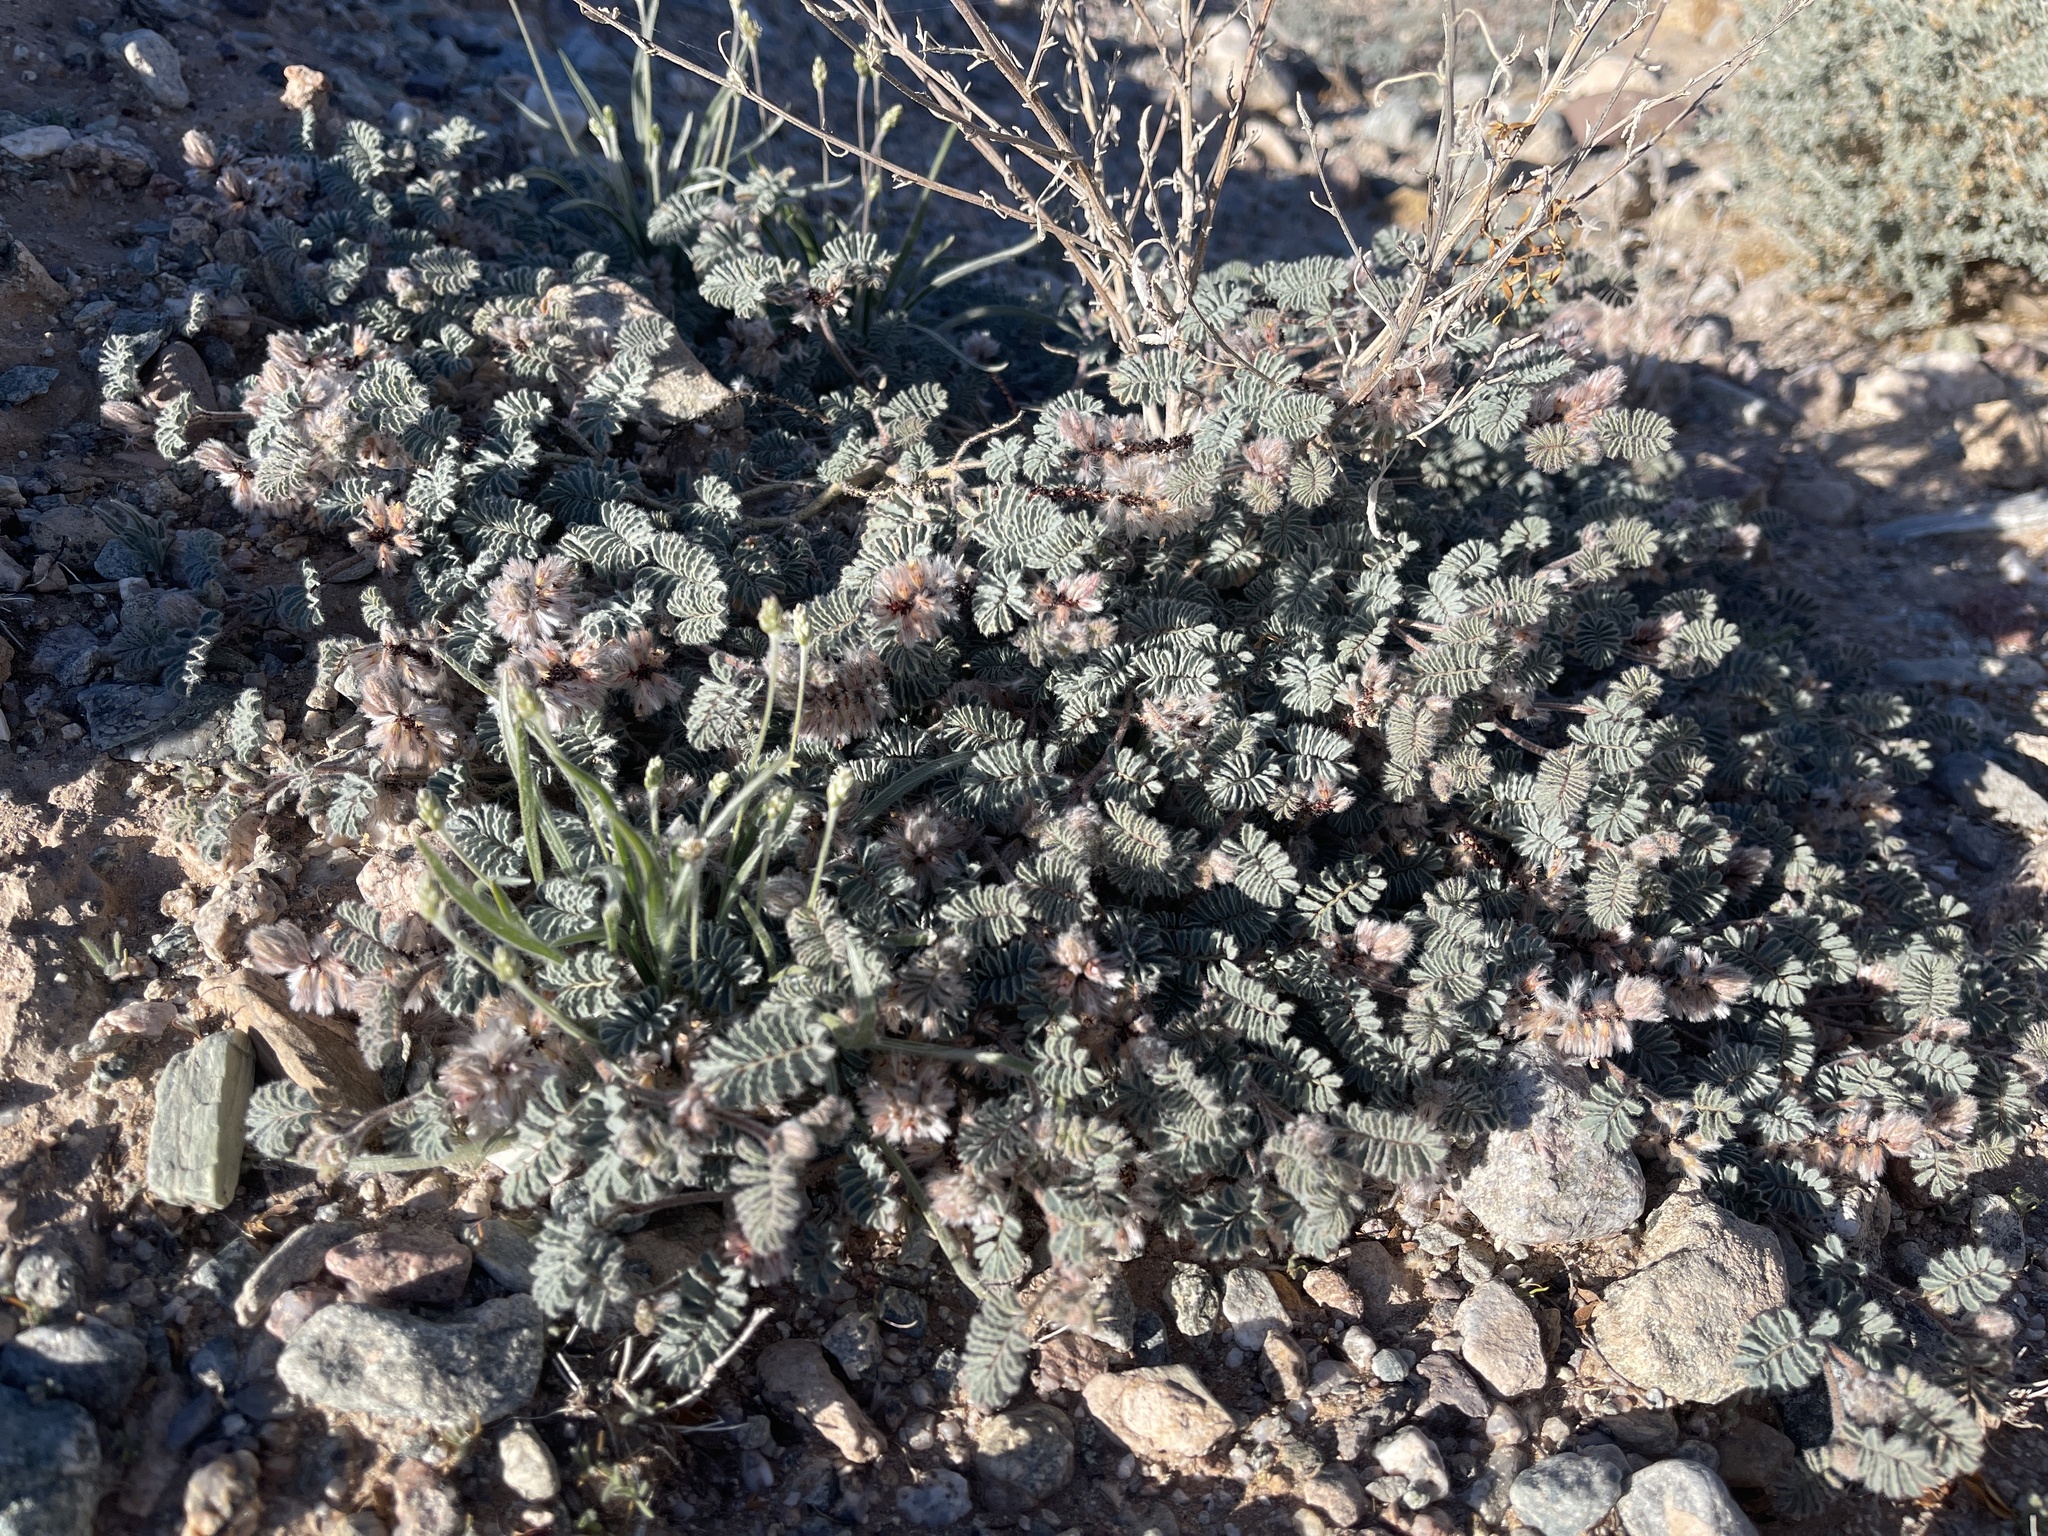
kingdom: Plantae
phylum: Tracheophyta
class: Magnoliopsida
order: Fabales
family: Fabaceae
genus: Dalea
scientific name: Dalea mollissima
